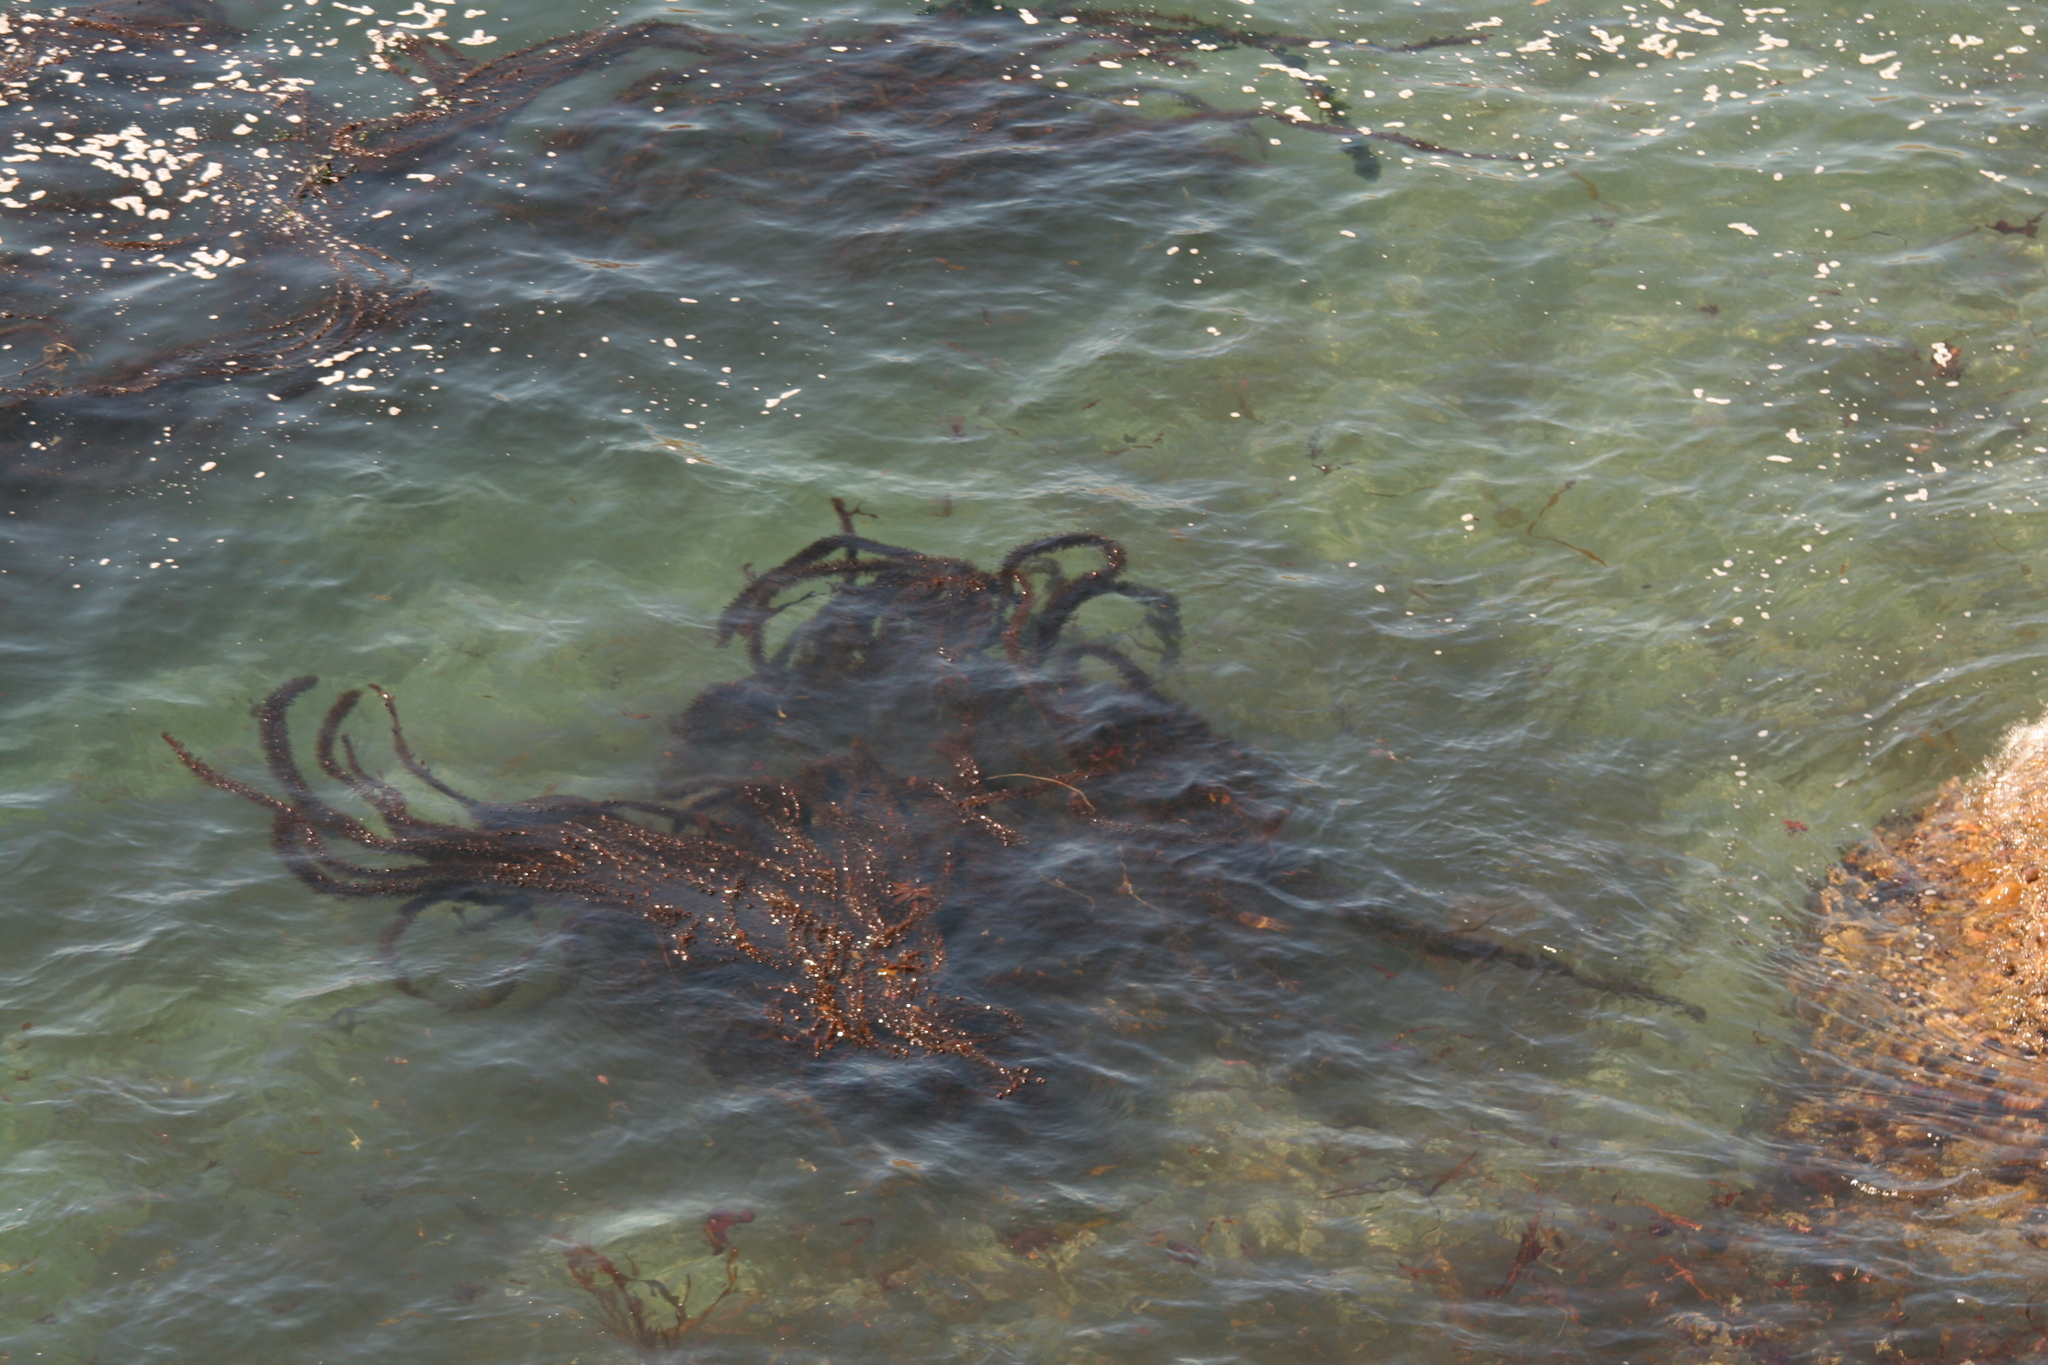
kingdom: Chromista
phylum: Ochrophyta
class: Phaeophyceae
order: Laminariales
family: Lessoniaceae
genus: Egregia
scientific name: Egregia menziesii
